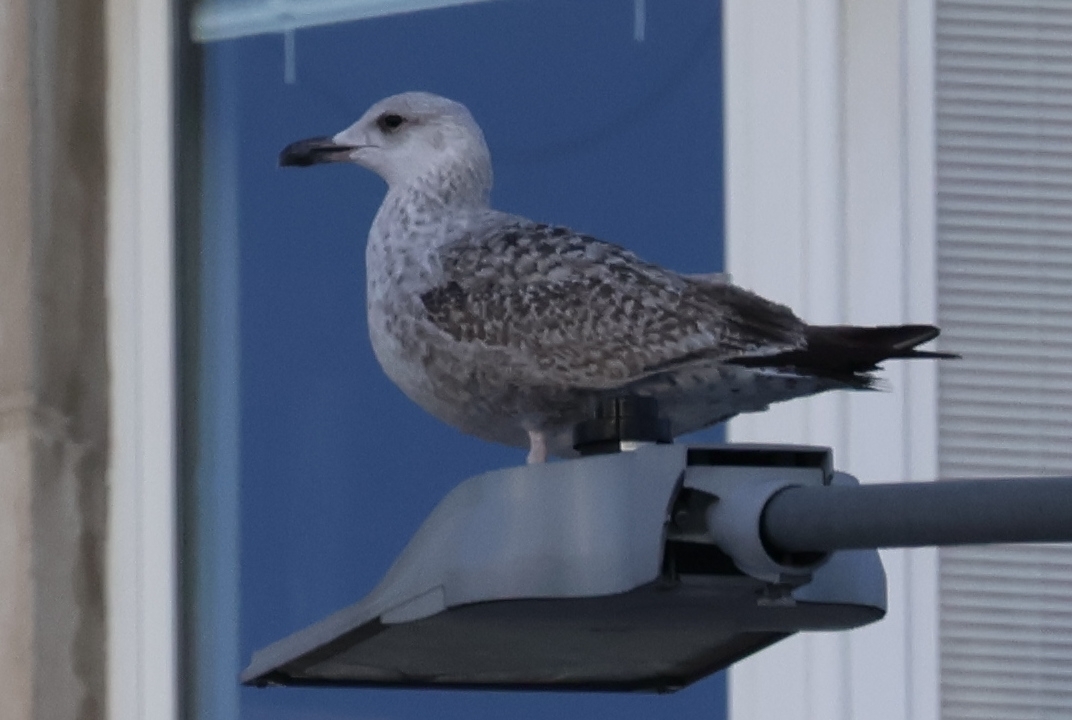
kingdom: Animalia
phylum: Chordata
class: Aves
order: Charadriiformes
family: Laridae
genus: Larus
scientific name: Larus argentatus
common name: Herring gull
